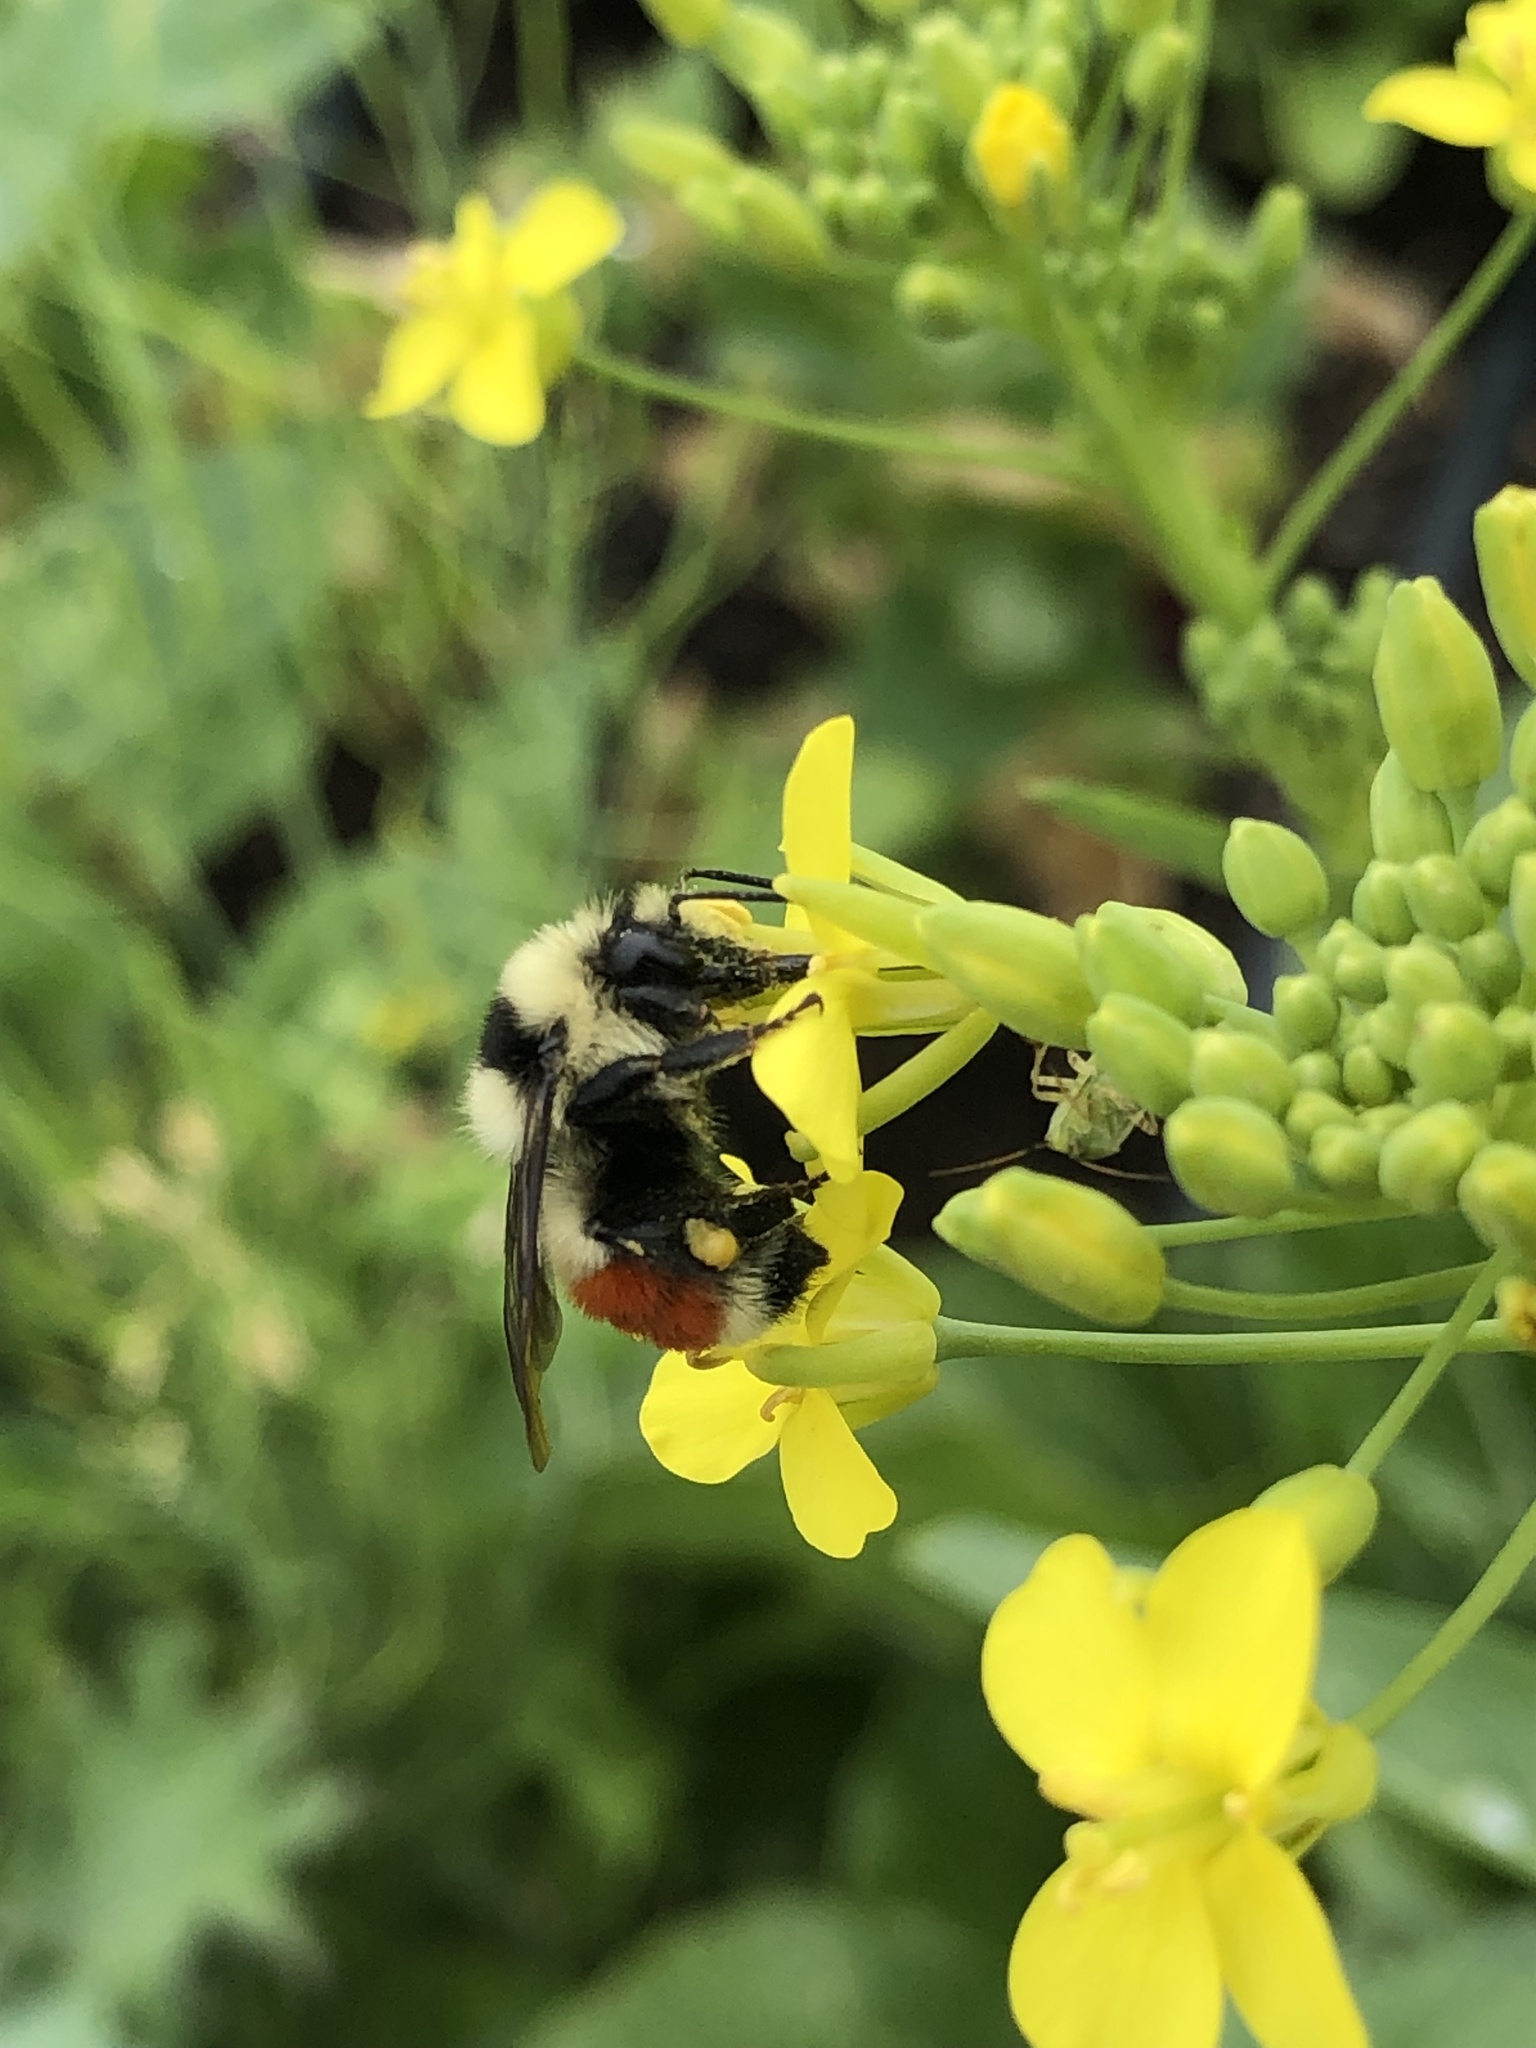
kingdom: Animalia
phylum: Arthropoda
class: Insecta
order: Hymenoptera
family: Apidae
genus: Bombus
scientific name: Bombus huntii
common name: Hunt bumble bee
